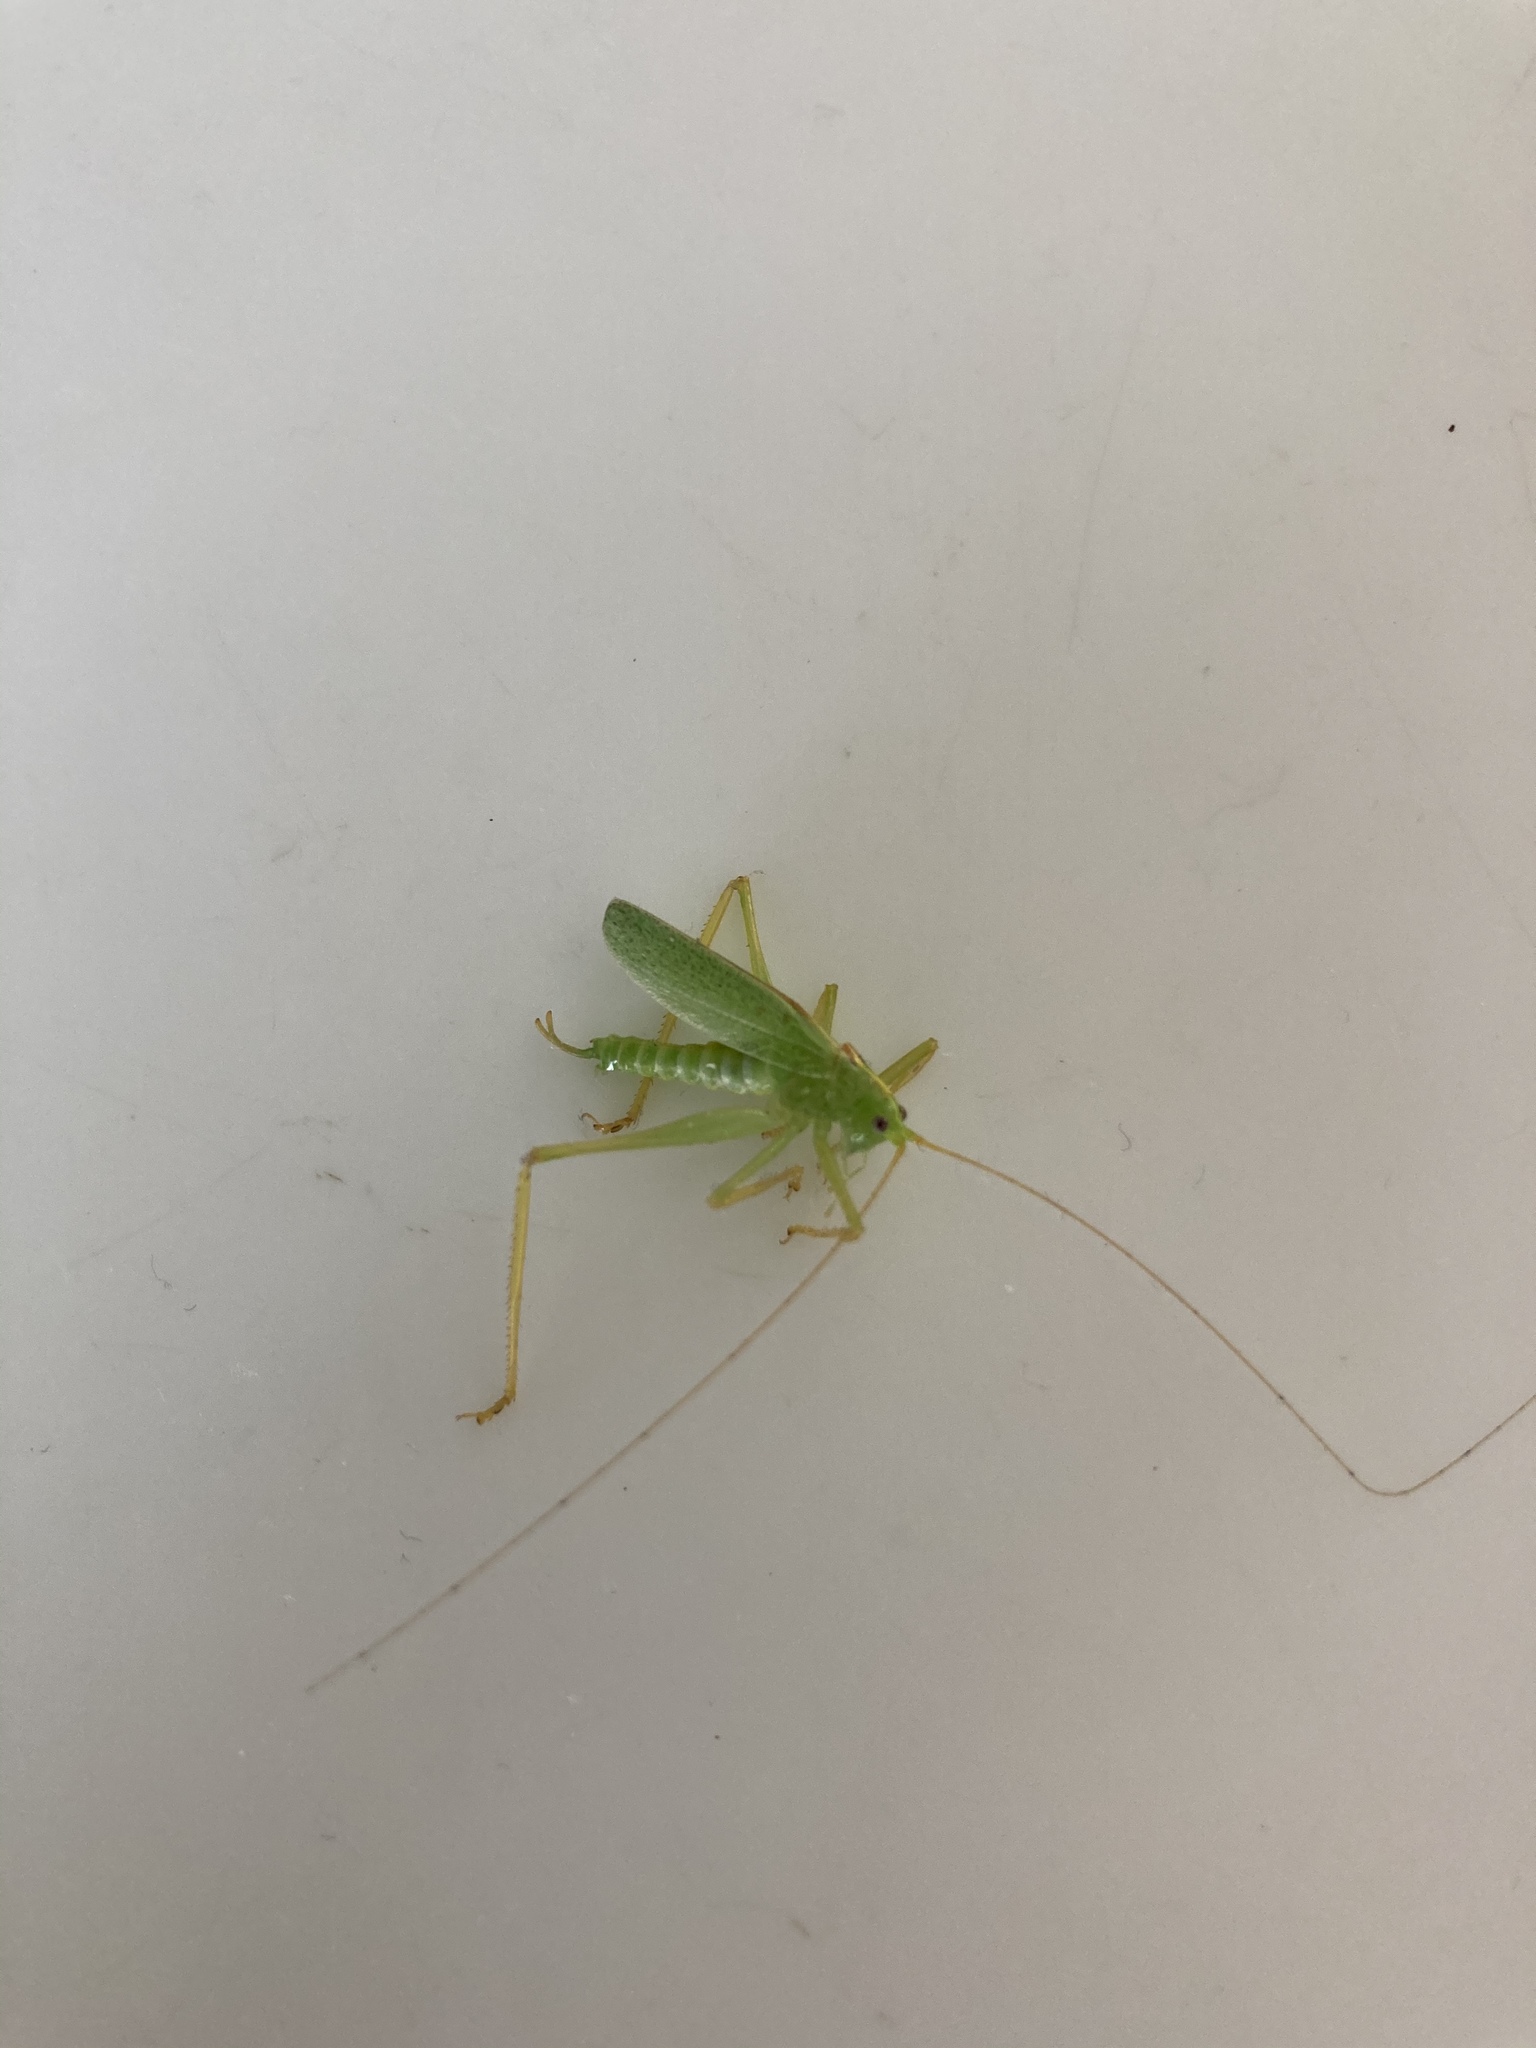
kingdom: Animalia
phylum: Arthropoda
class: Insecta
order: Orthoptera
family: Tettigoniidae
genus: Meconema
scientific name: Meconema thalassinum
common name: Oak bush-cricket
